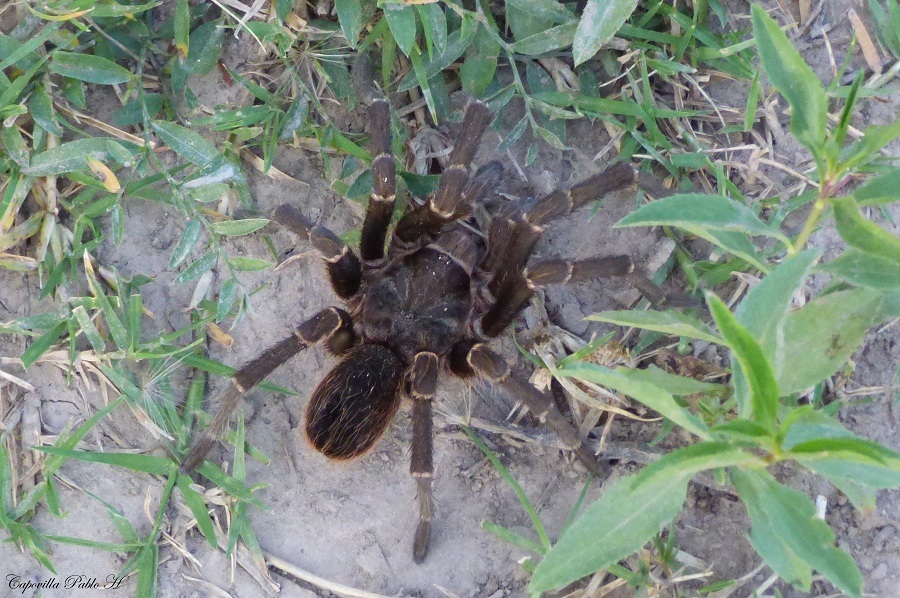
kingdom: Animalia
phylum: Arthropoda
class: Arachnida
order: Araneae
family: Theraphosidae
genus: Acanthoscurria
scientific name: Acanthoscurria cordubensis
